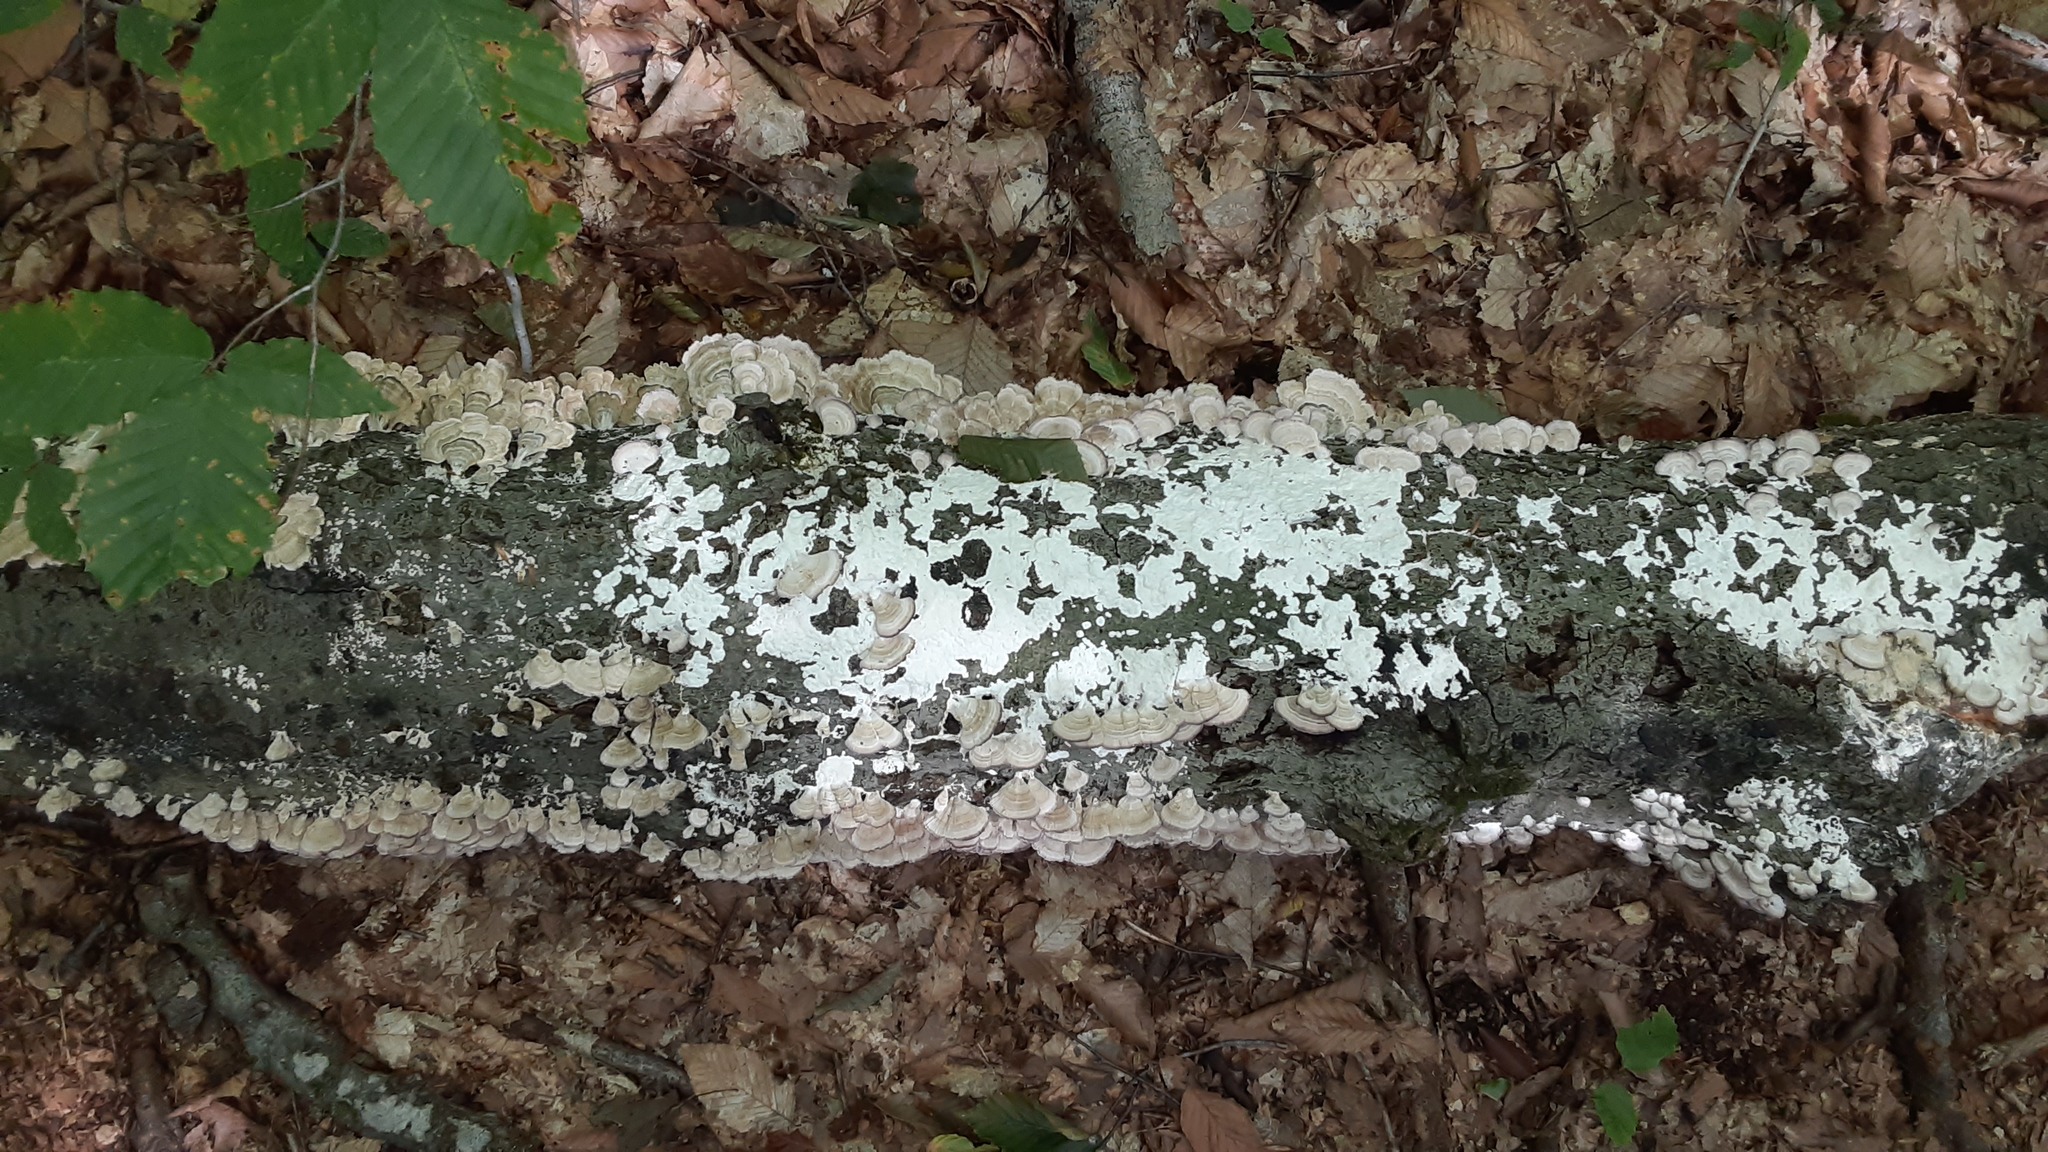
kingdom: Fungi
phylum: Basidiomycota
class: Agaricomycetes
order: Hymenochaetales
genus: Trichaptum
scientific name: Trichaptum biforme
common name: Violet-toothed polypore
